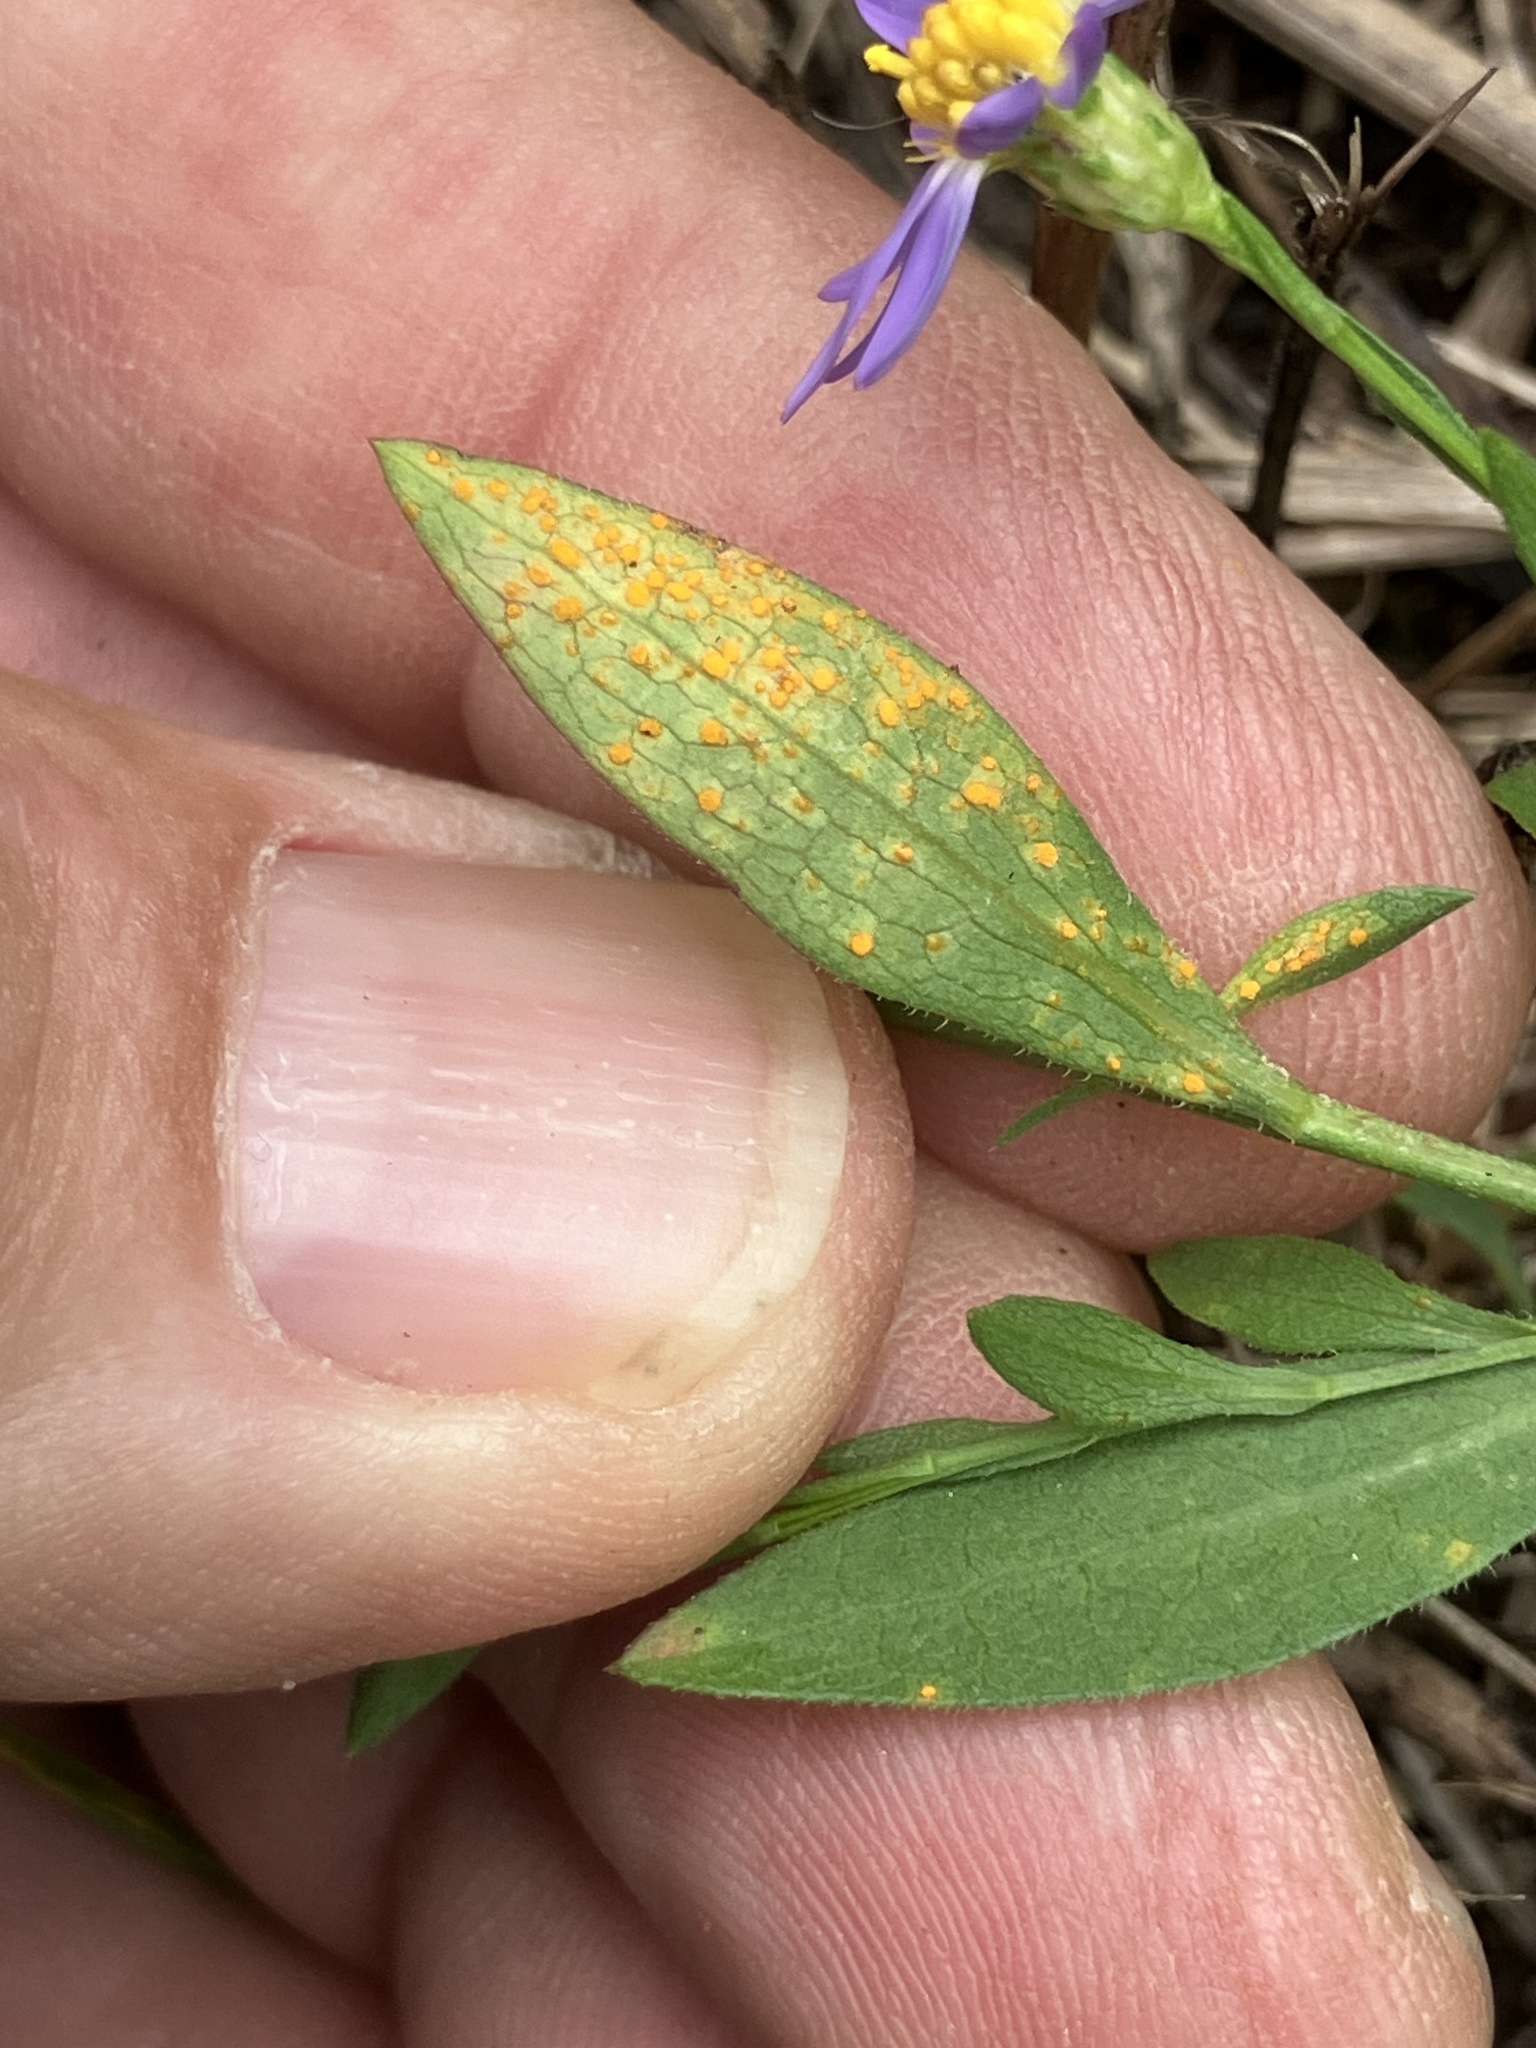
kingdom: Fungi
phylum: Basidiomycota
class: Pucciniomycetes
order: Pucciniales
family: Coleosporiaceae
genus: Coleosporium
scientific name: Coleosporium asterum
